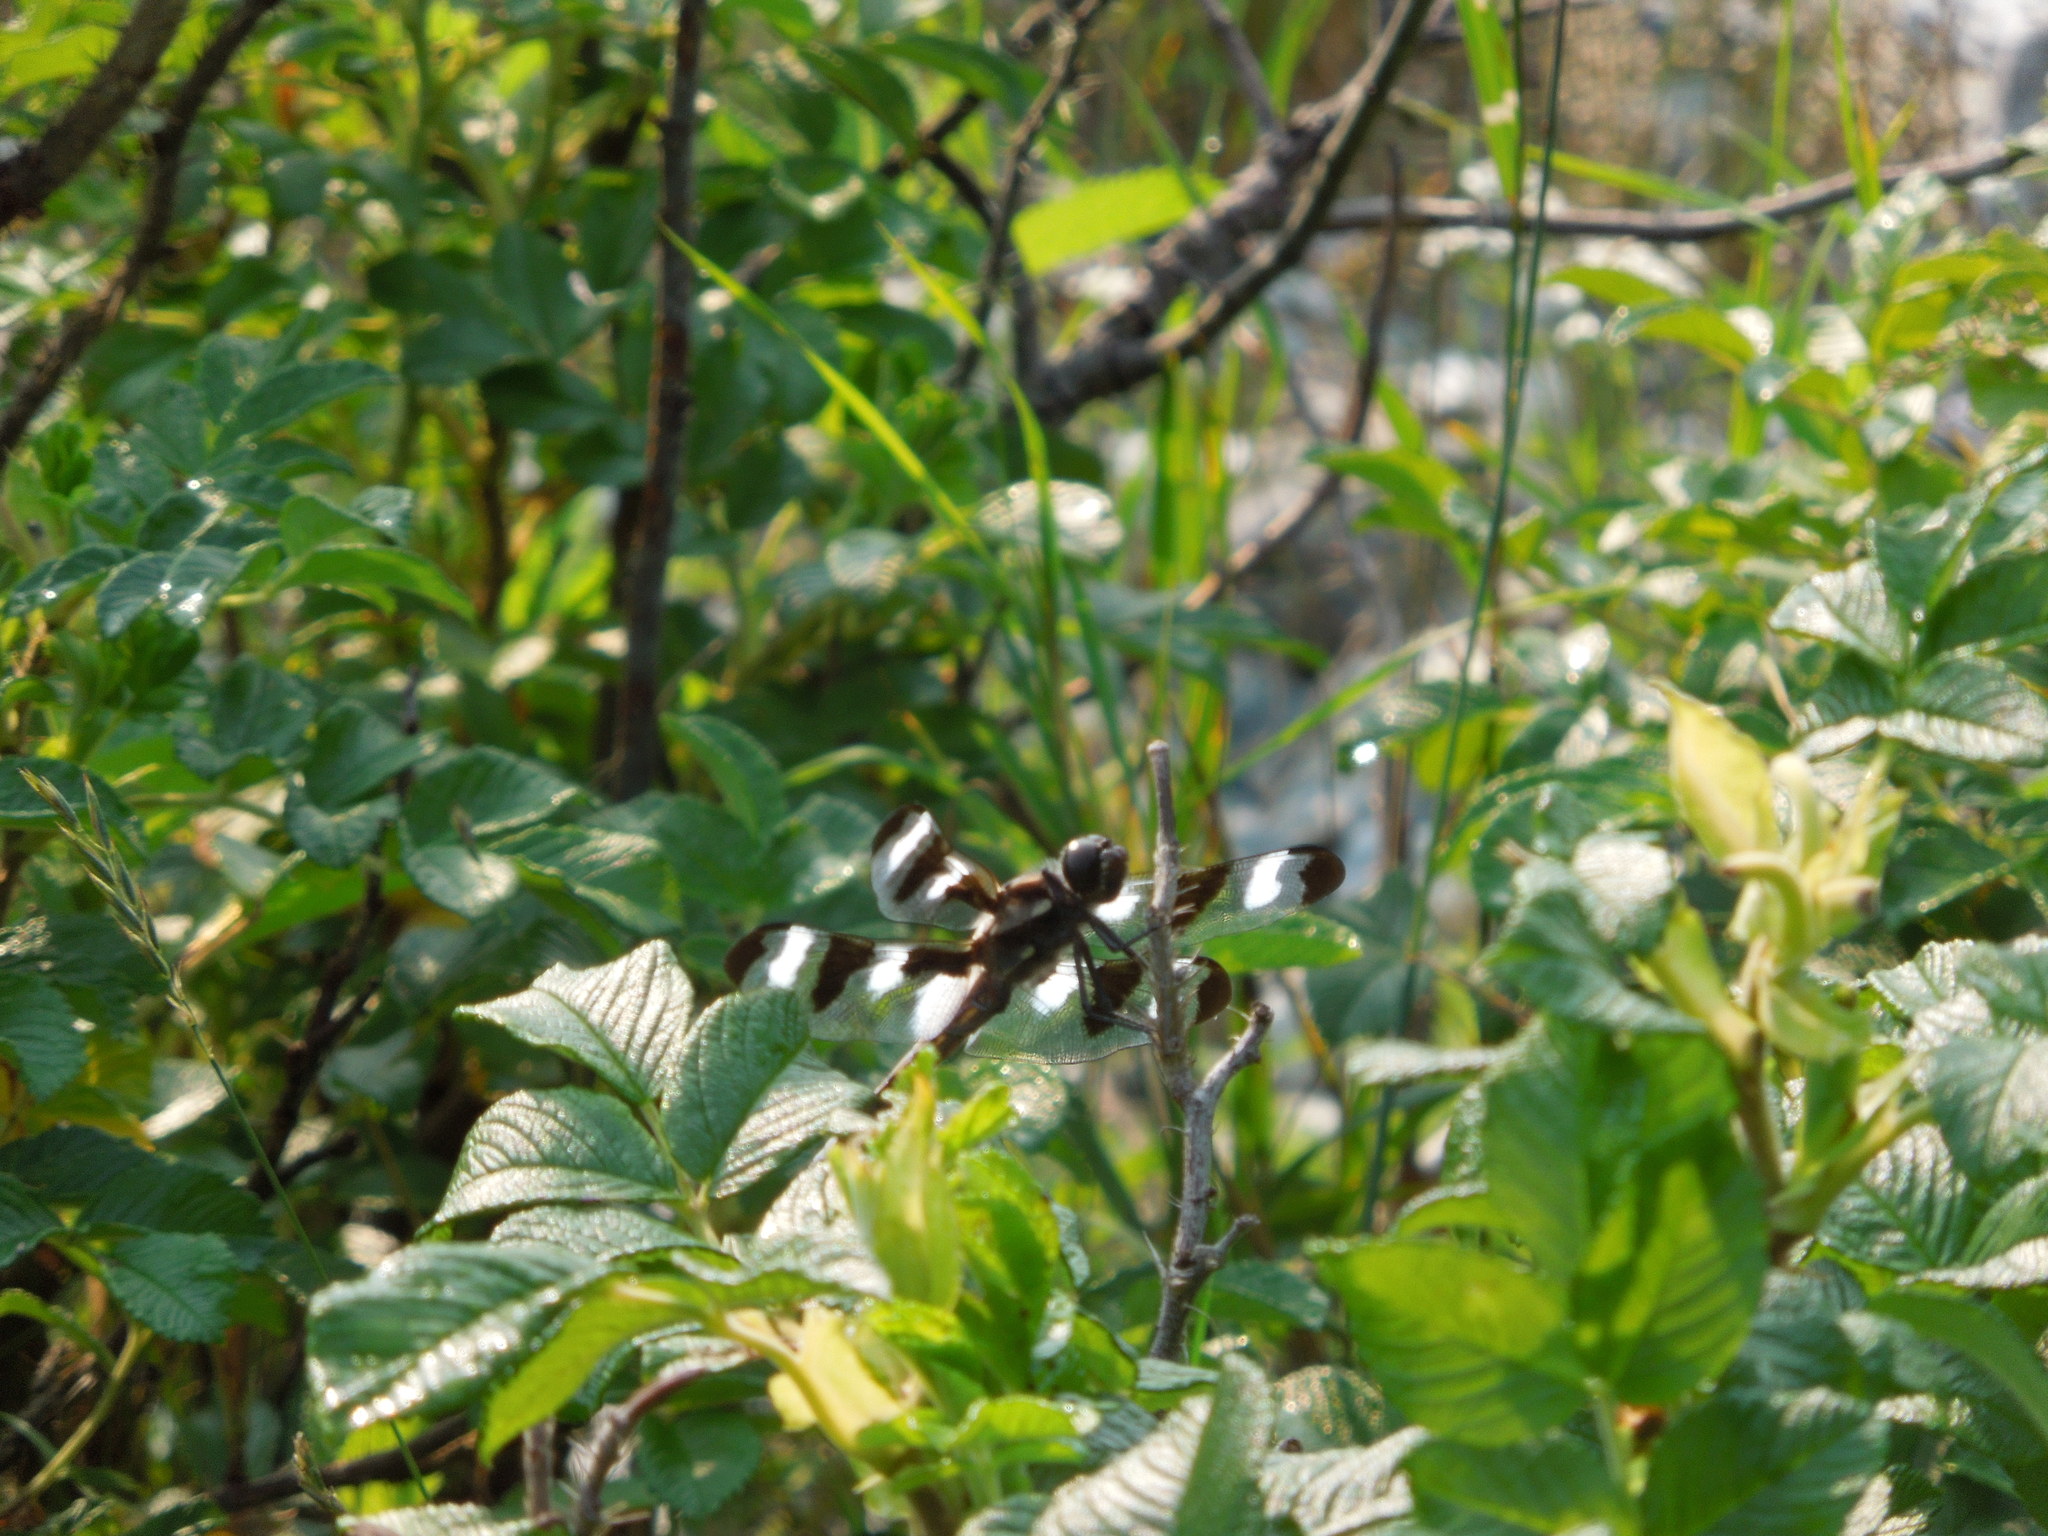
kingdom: Animalia
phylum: Arthropoda
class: Insecta
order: Odonata
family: Libellulidae
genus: Libellula
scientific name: Libellula pulchella
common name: Twelve-spotted skimmer
